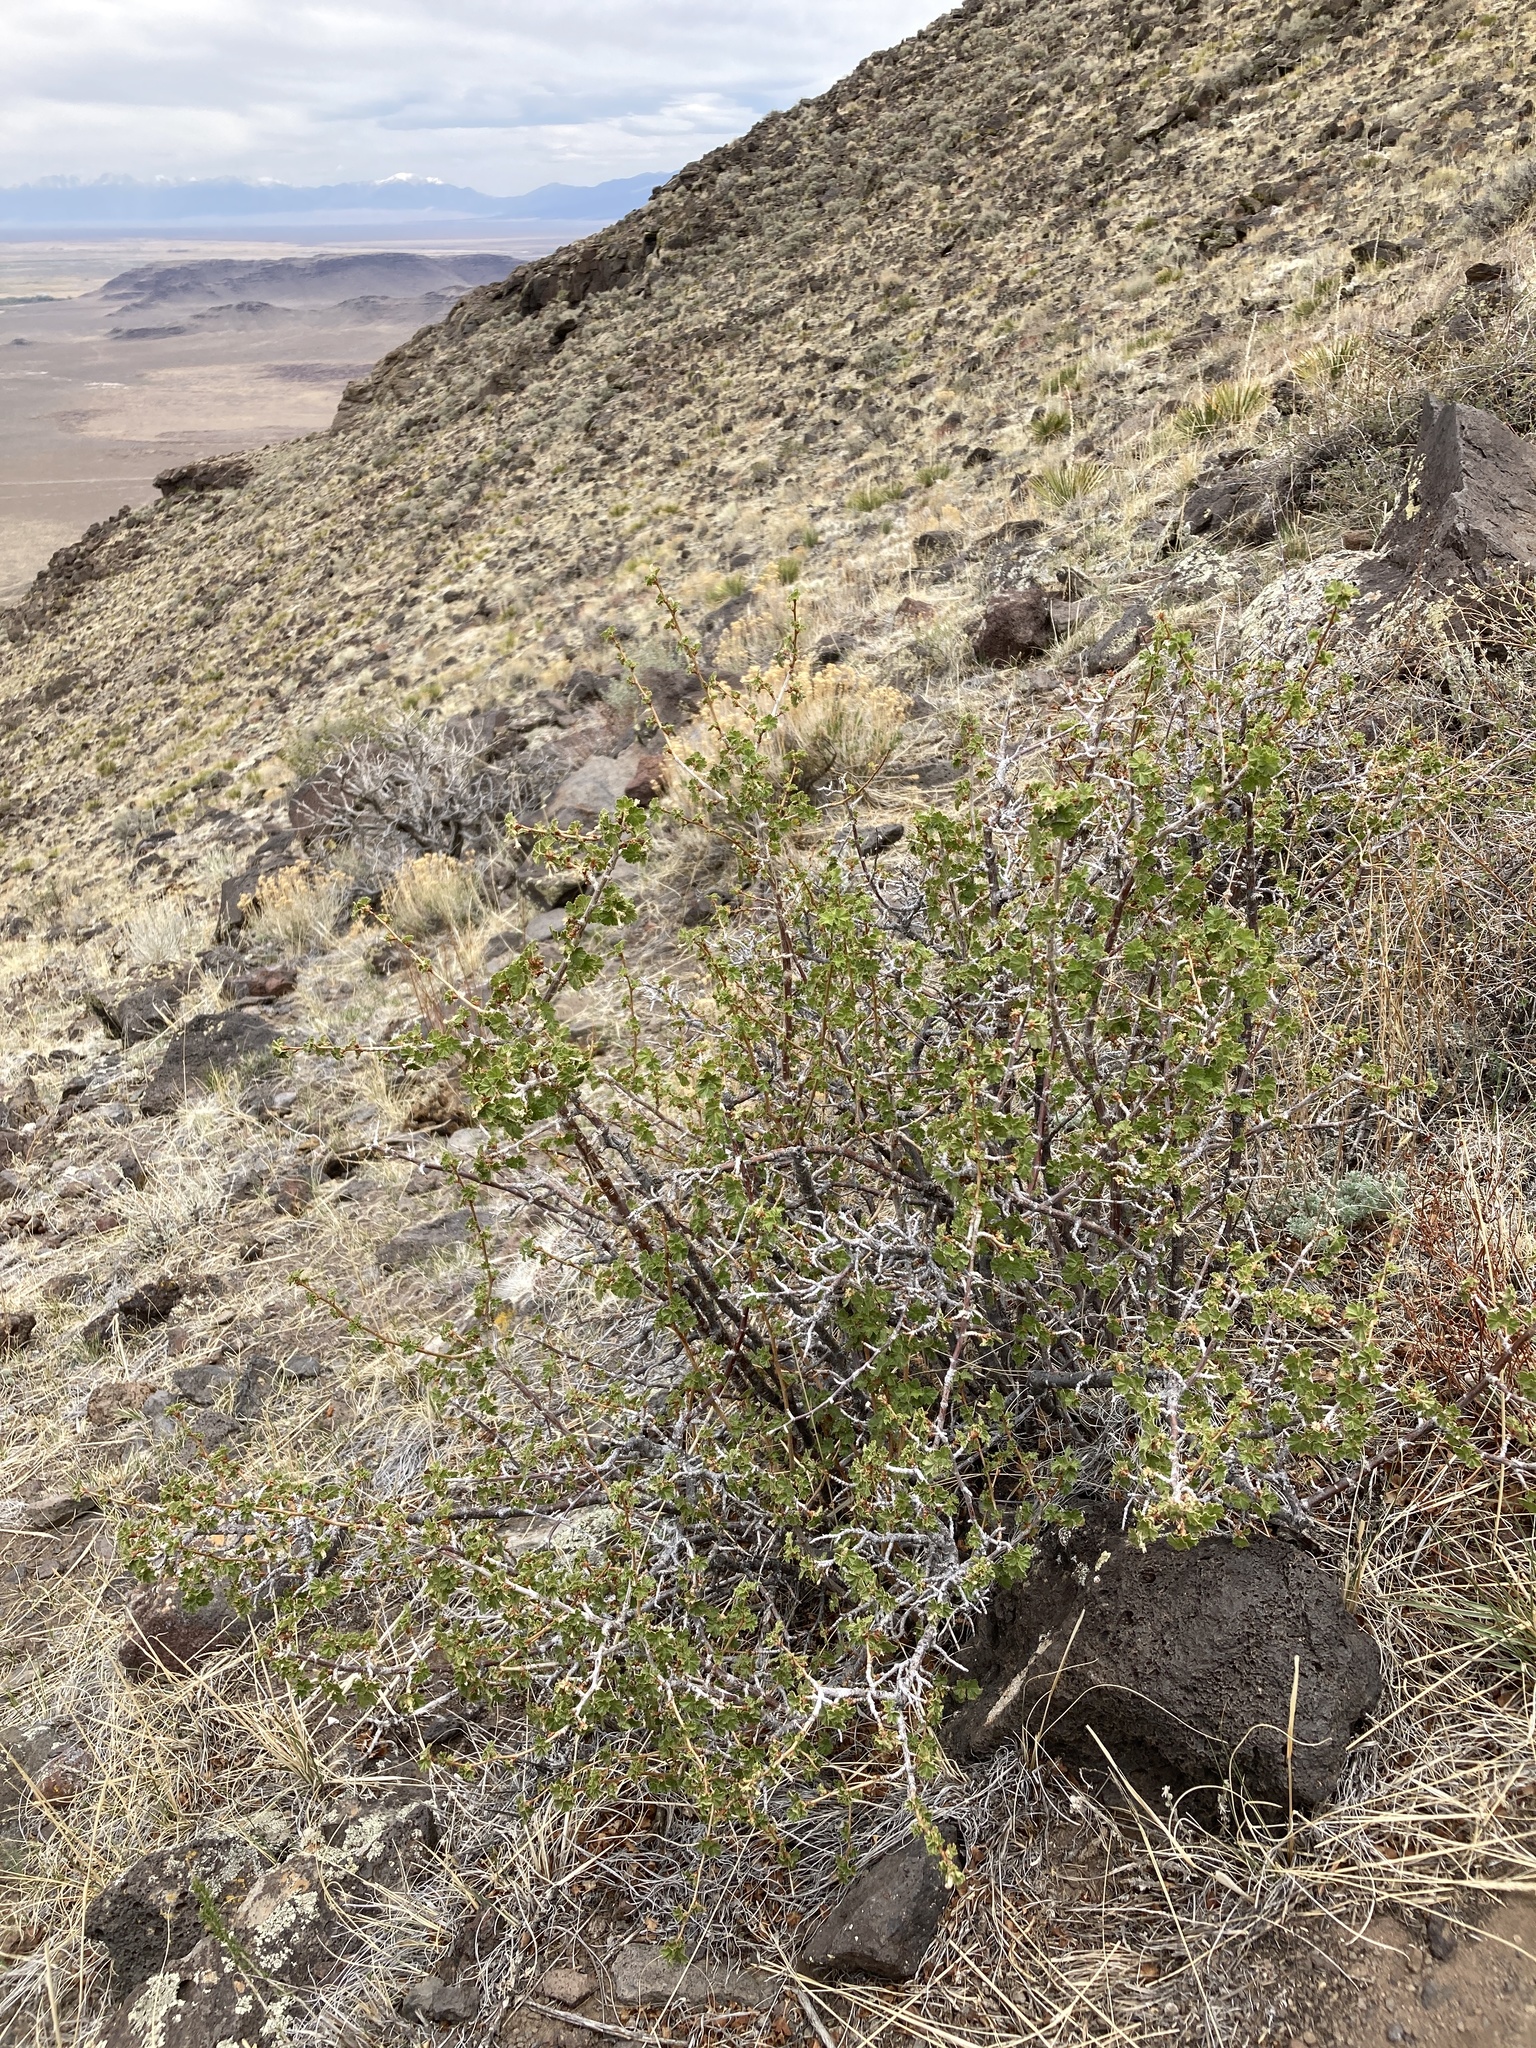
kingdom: Plantae
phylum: Tracheophyta
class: Magnoliopsida
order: Saxifragales
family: Grossulariaceae
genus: Ribes
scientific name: Ribes cereum
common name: Wax currant
